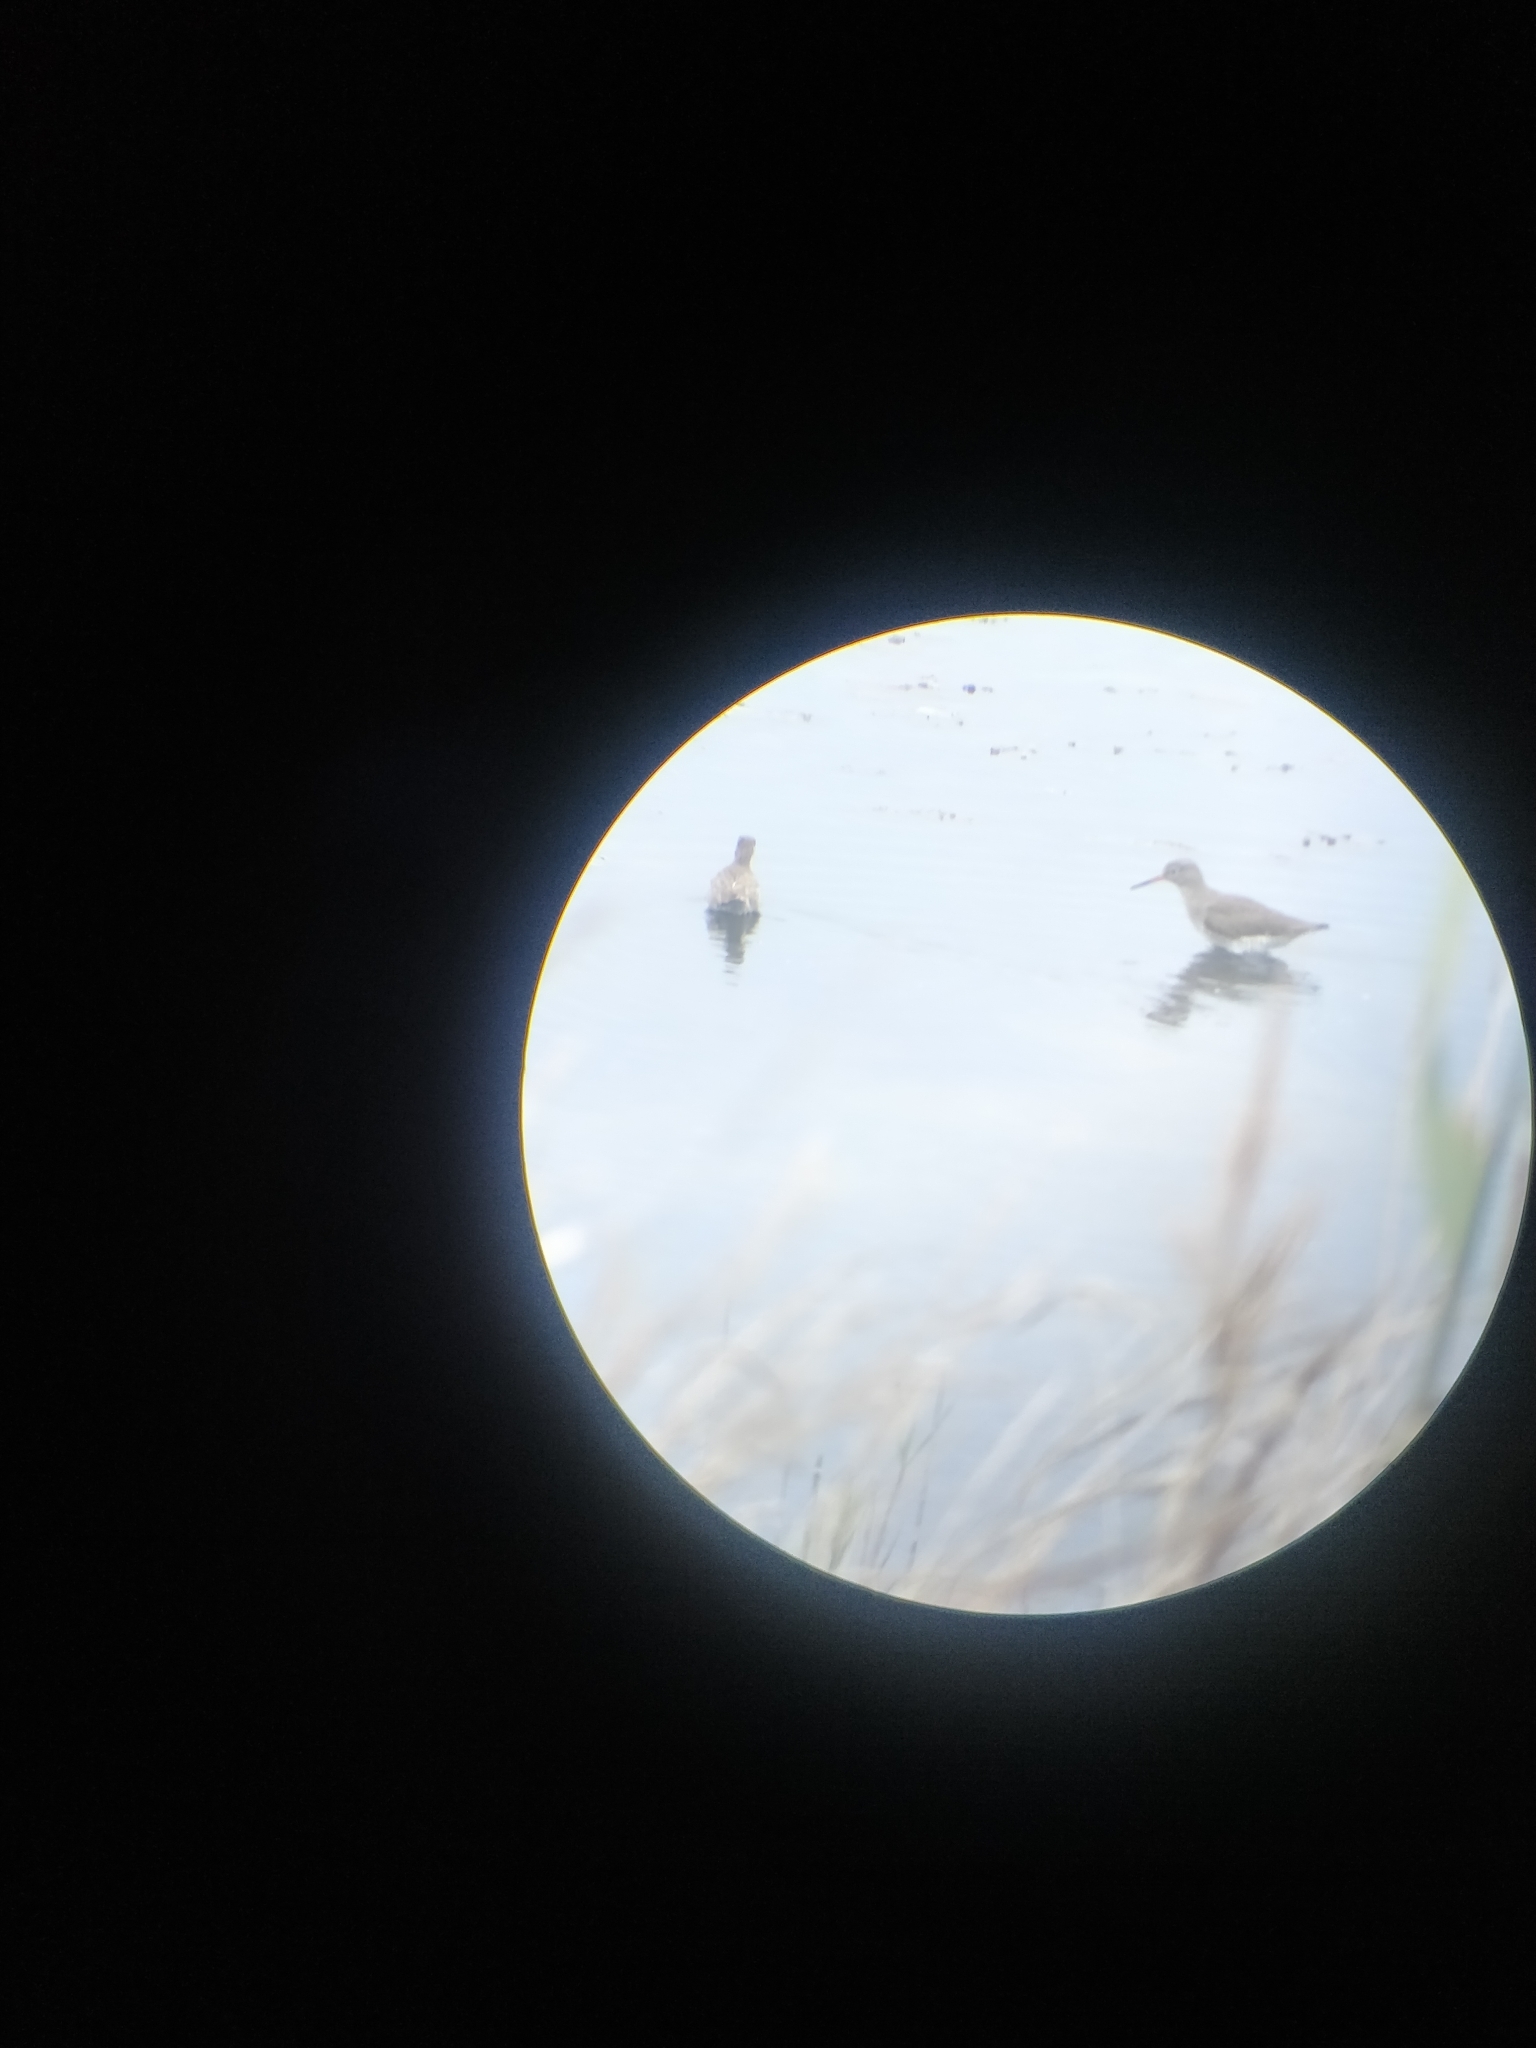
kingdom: Animalia
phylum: Chordata
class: Aves
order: Charadriiformes
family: Scolopacidae
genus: Tringa
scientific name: Tringa totanus
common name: Common redshank
